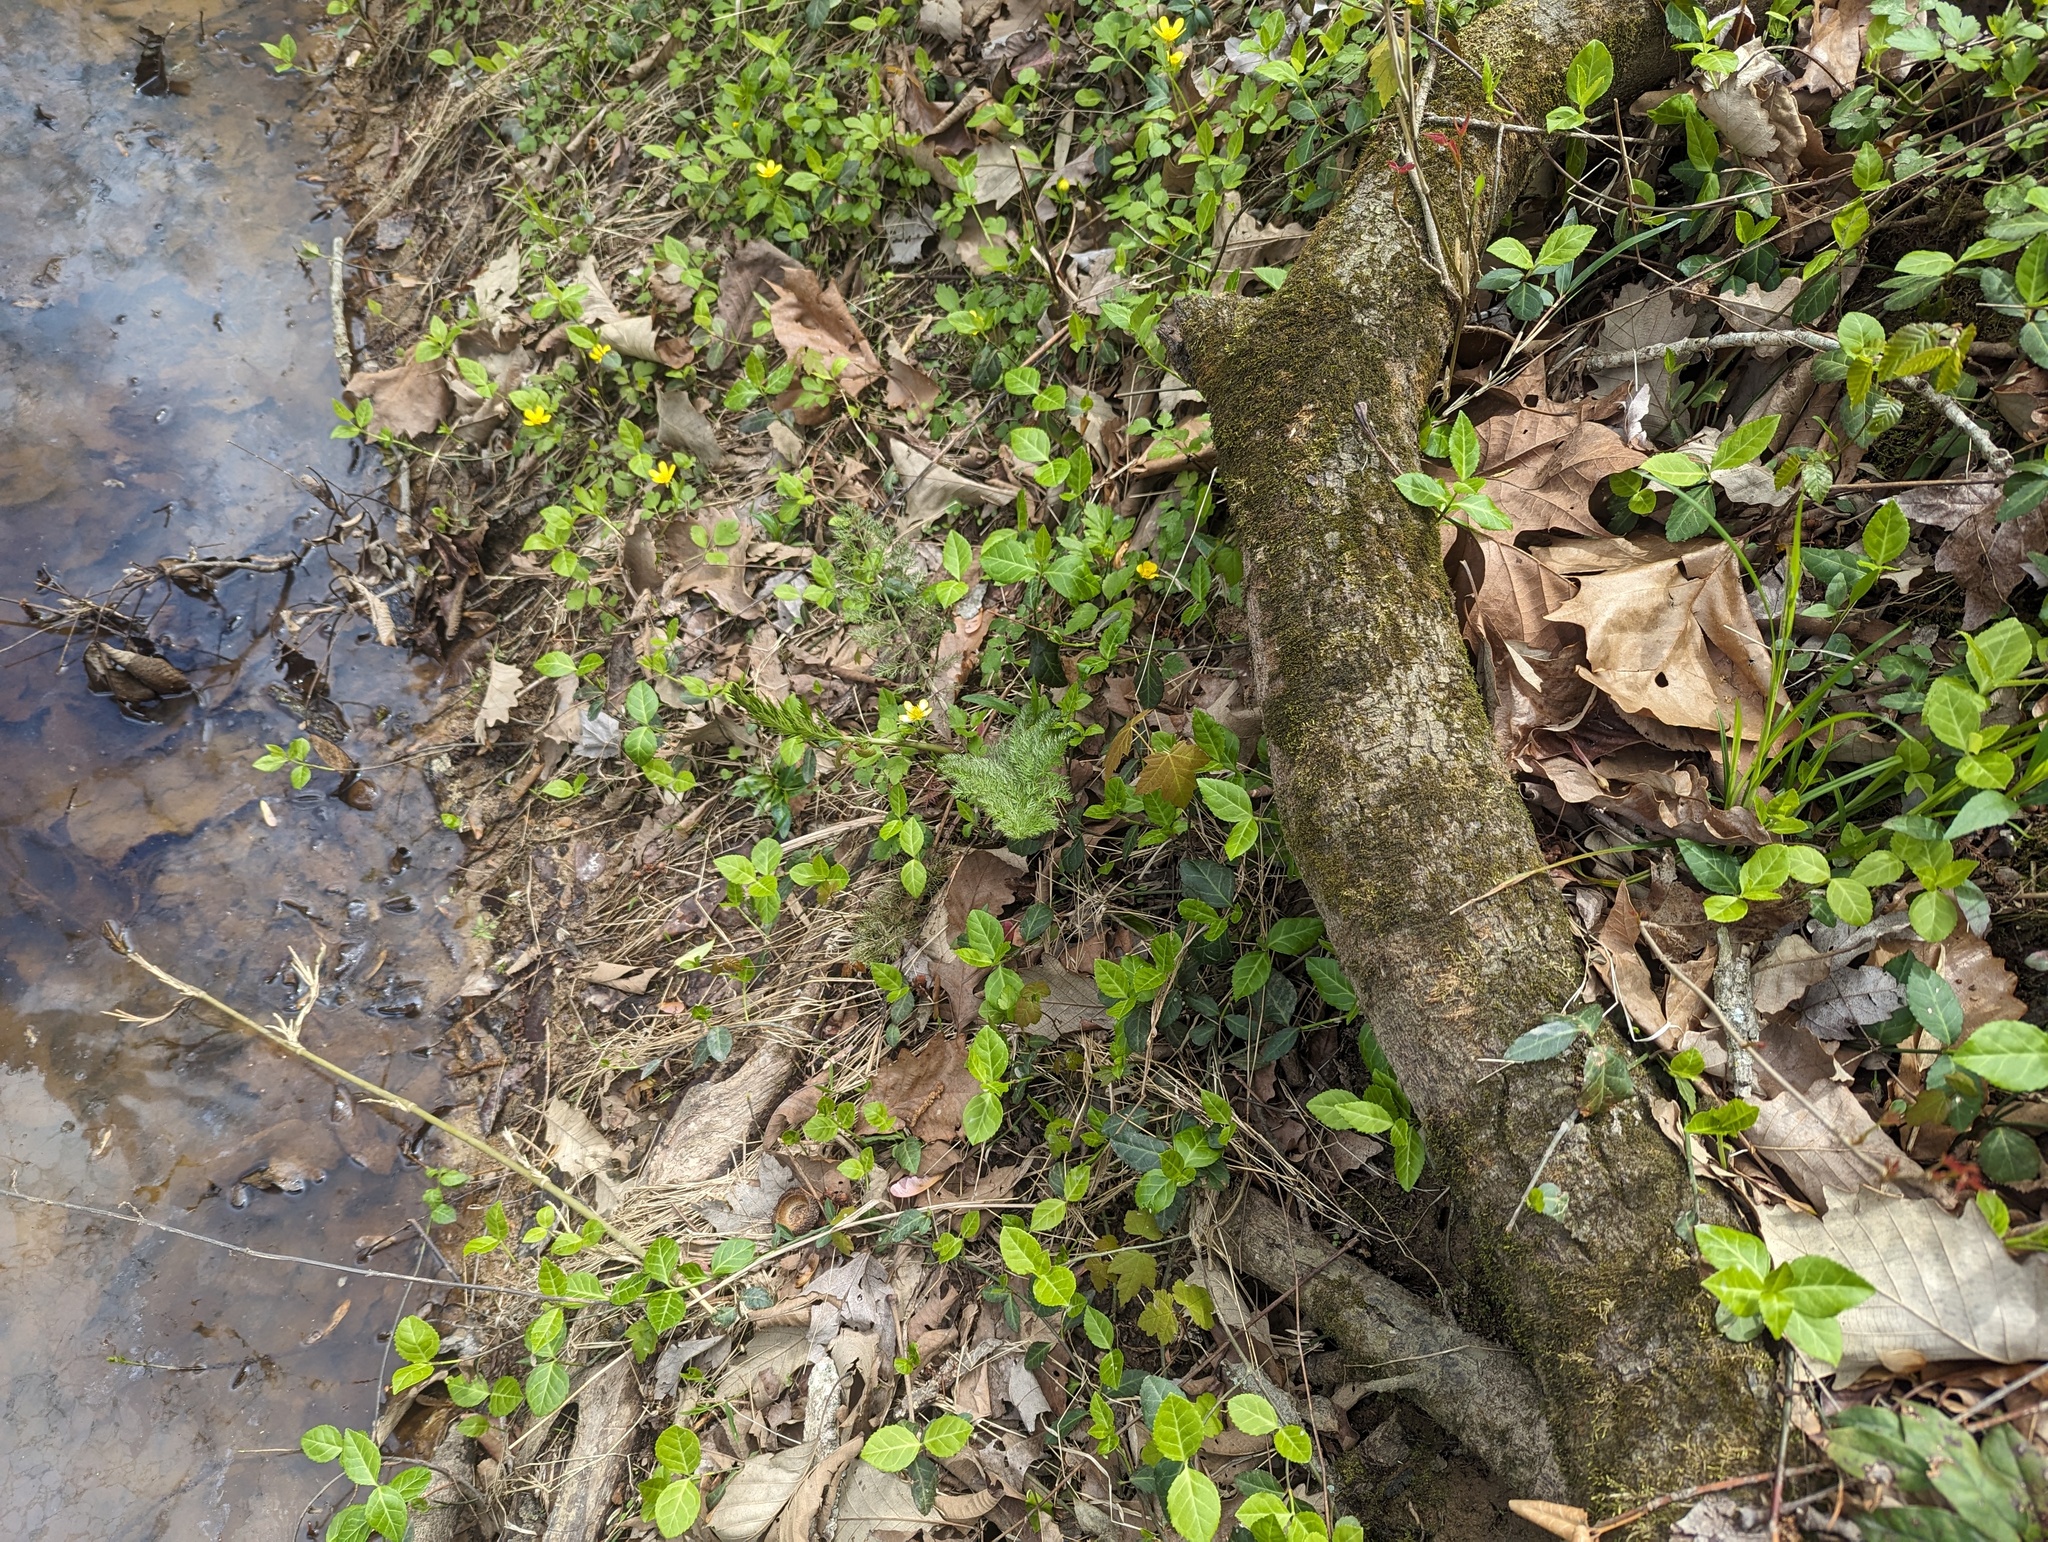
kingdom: Plantae
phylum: Tracheophyta
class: Magnoliopsida
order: Apiales
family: Apiaceae
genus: Sium
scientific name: Sium suave
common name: Hemlock water-parsnip
